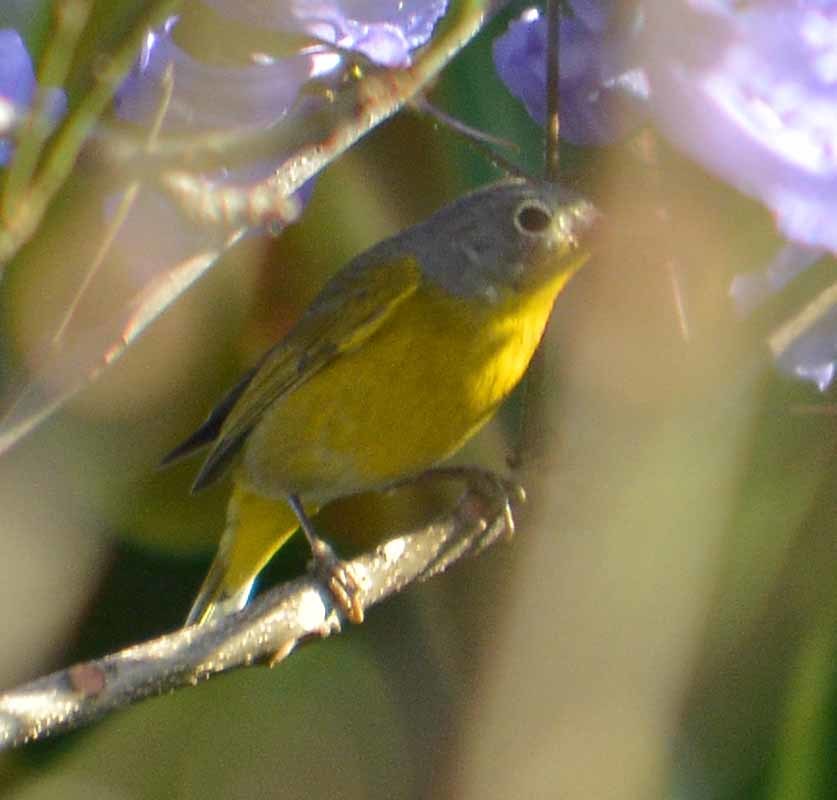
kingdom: Animalia
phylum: Chordata
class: Aves
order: Passeriformes
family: Parulidae
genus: Leiothlypis
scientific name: Leiothlypis ruficapilla
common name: Nashville warbler
